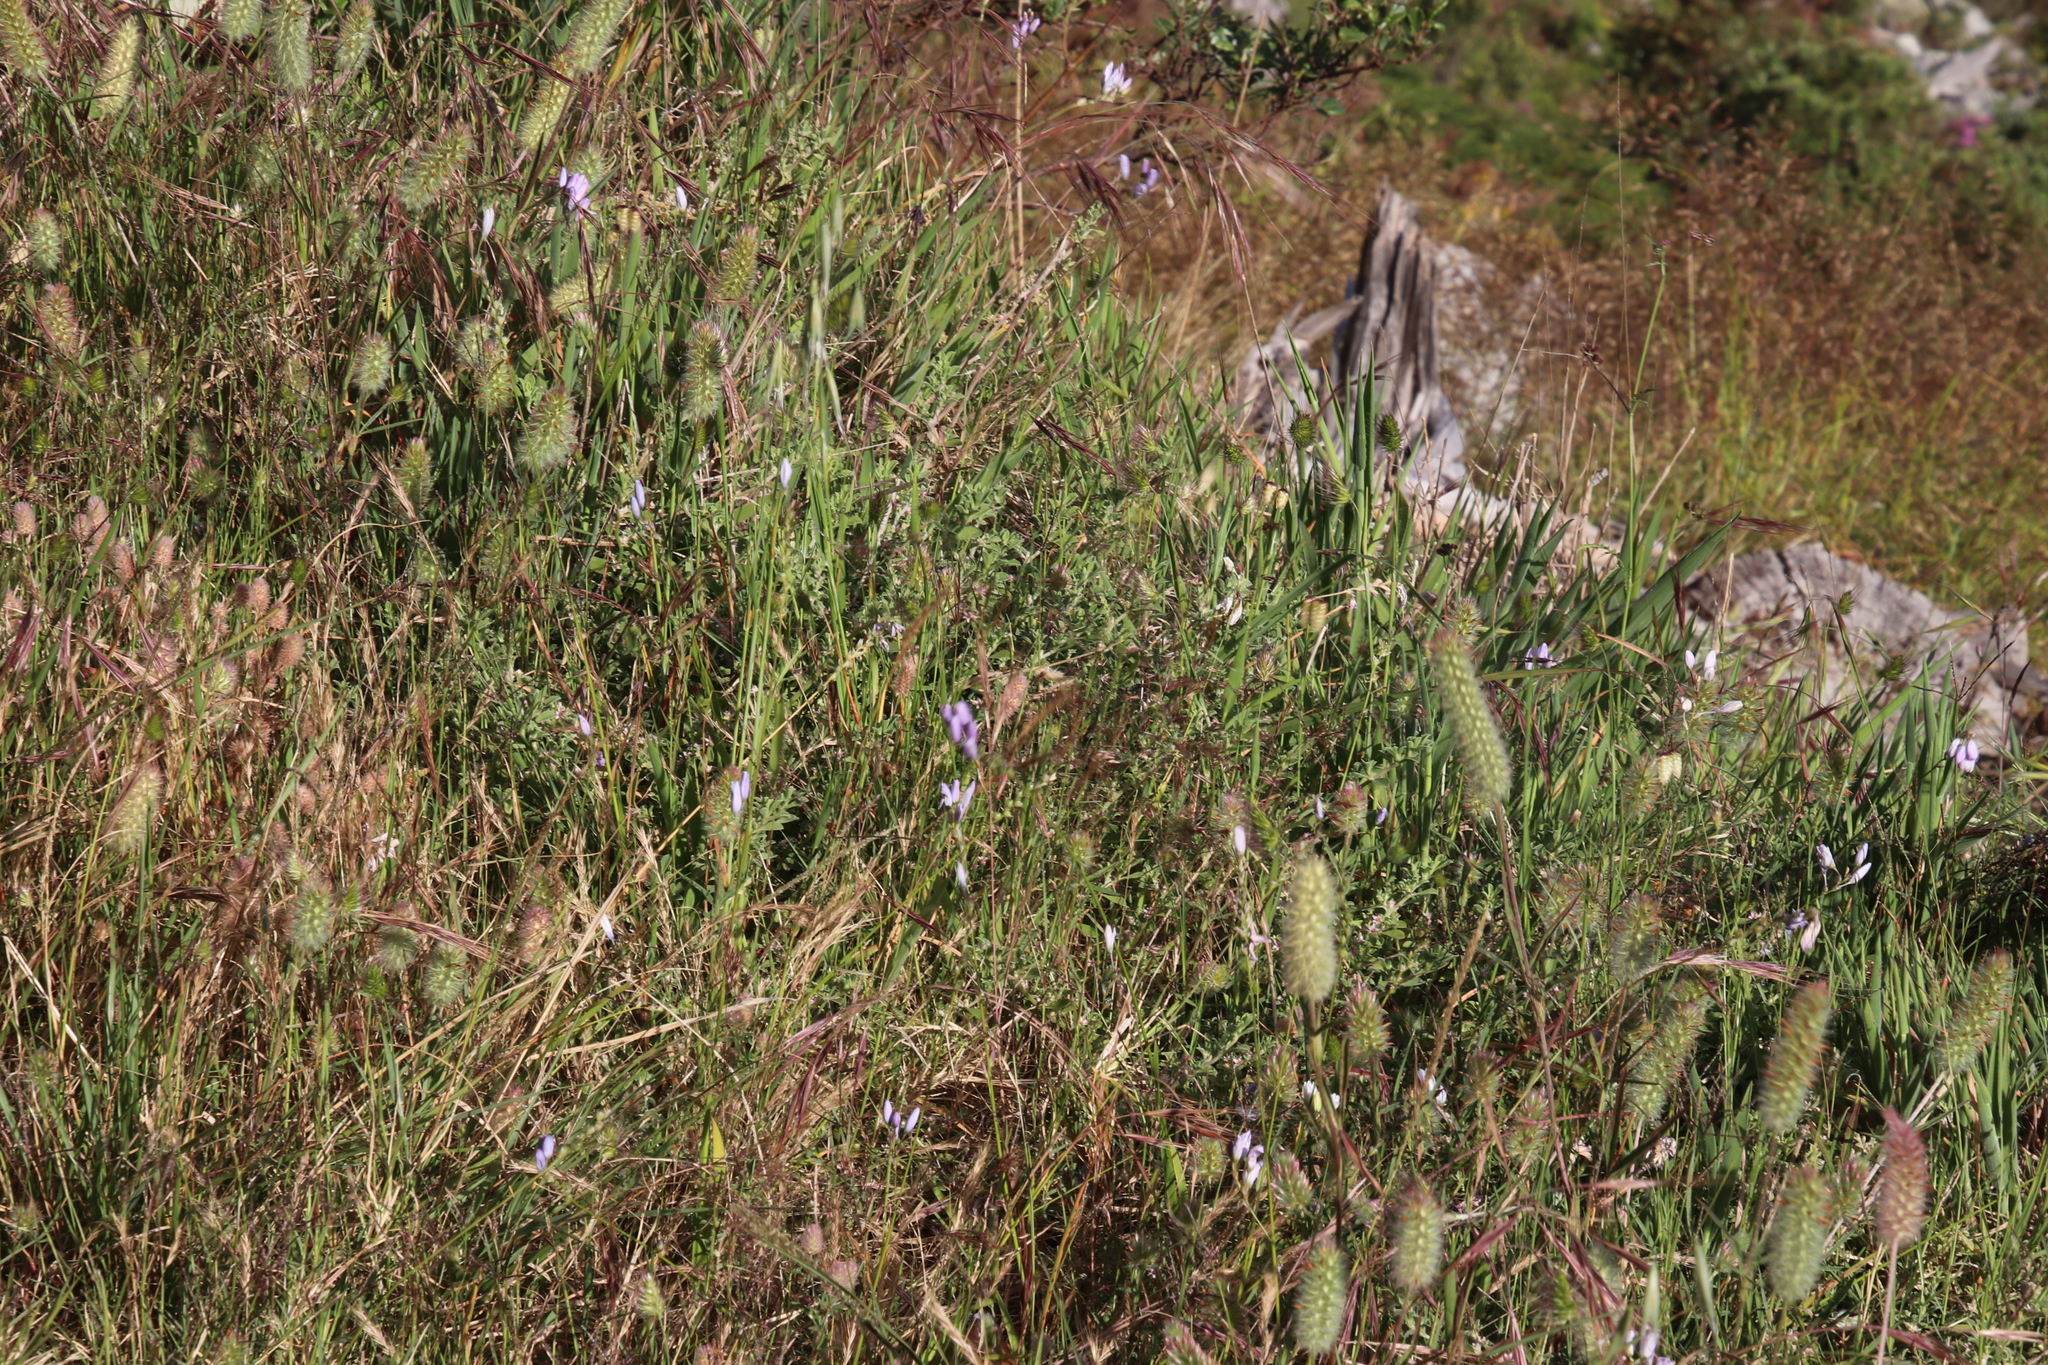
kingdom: Plantae
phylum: Tracheophyta
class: Magnoliopsida
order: Fabales
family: Fabaceae
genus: Trifolium
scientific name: Trifolium angustifolium
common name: Narrow clover
